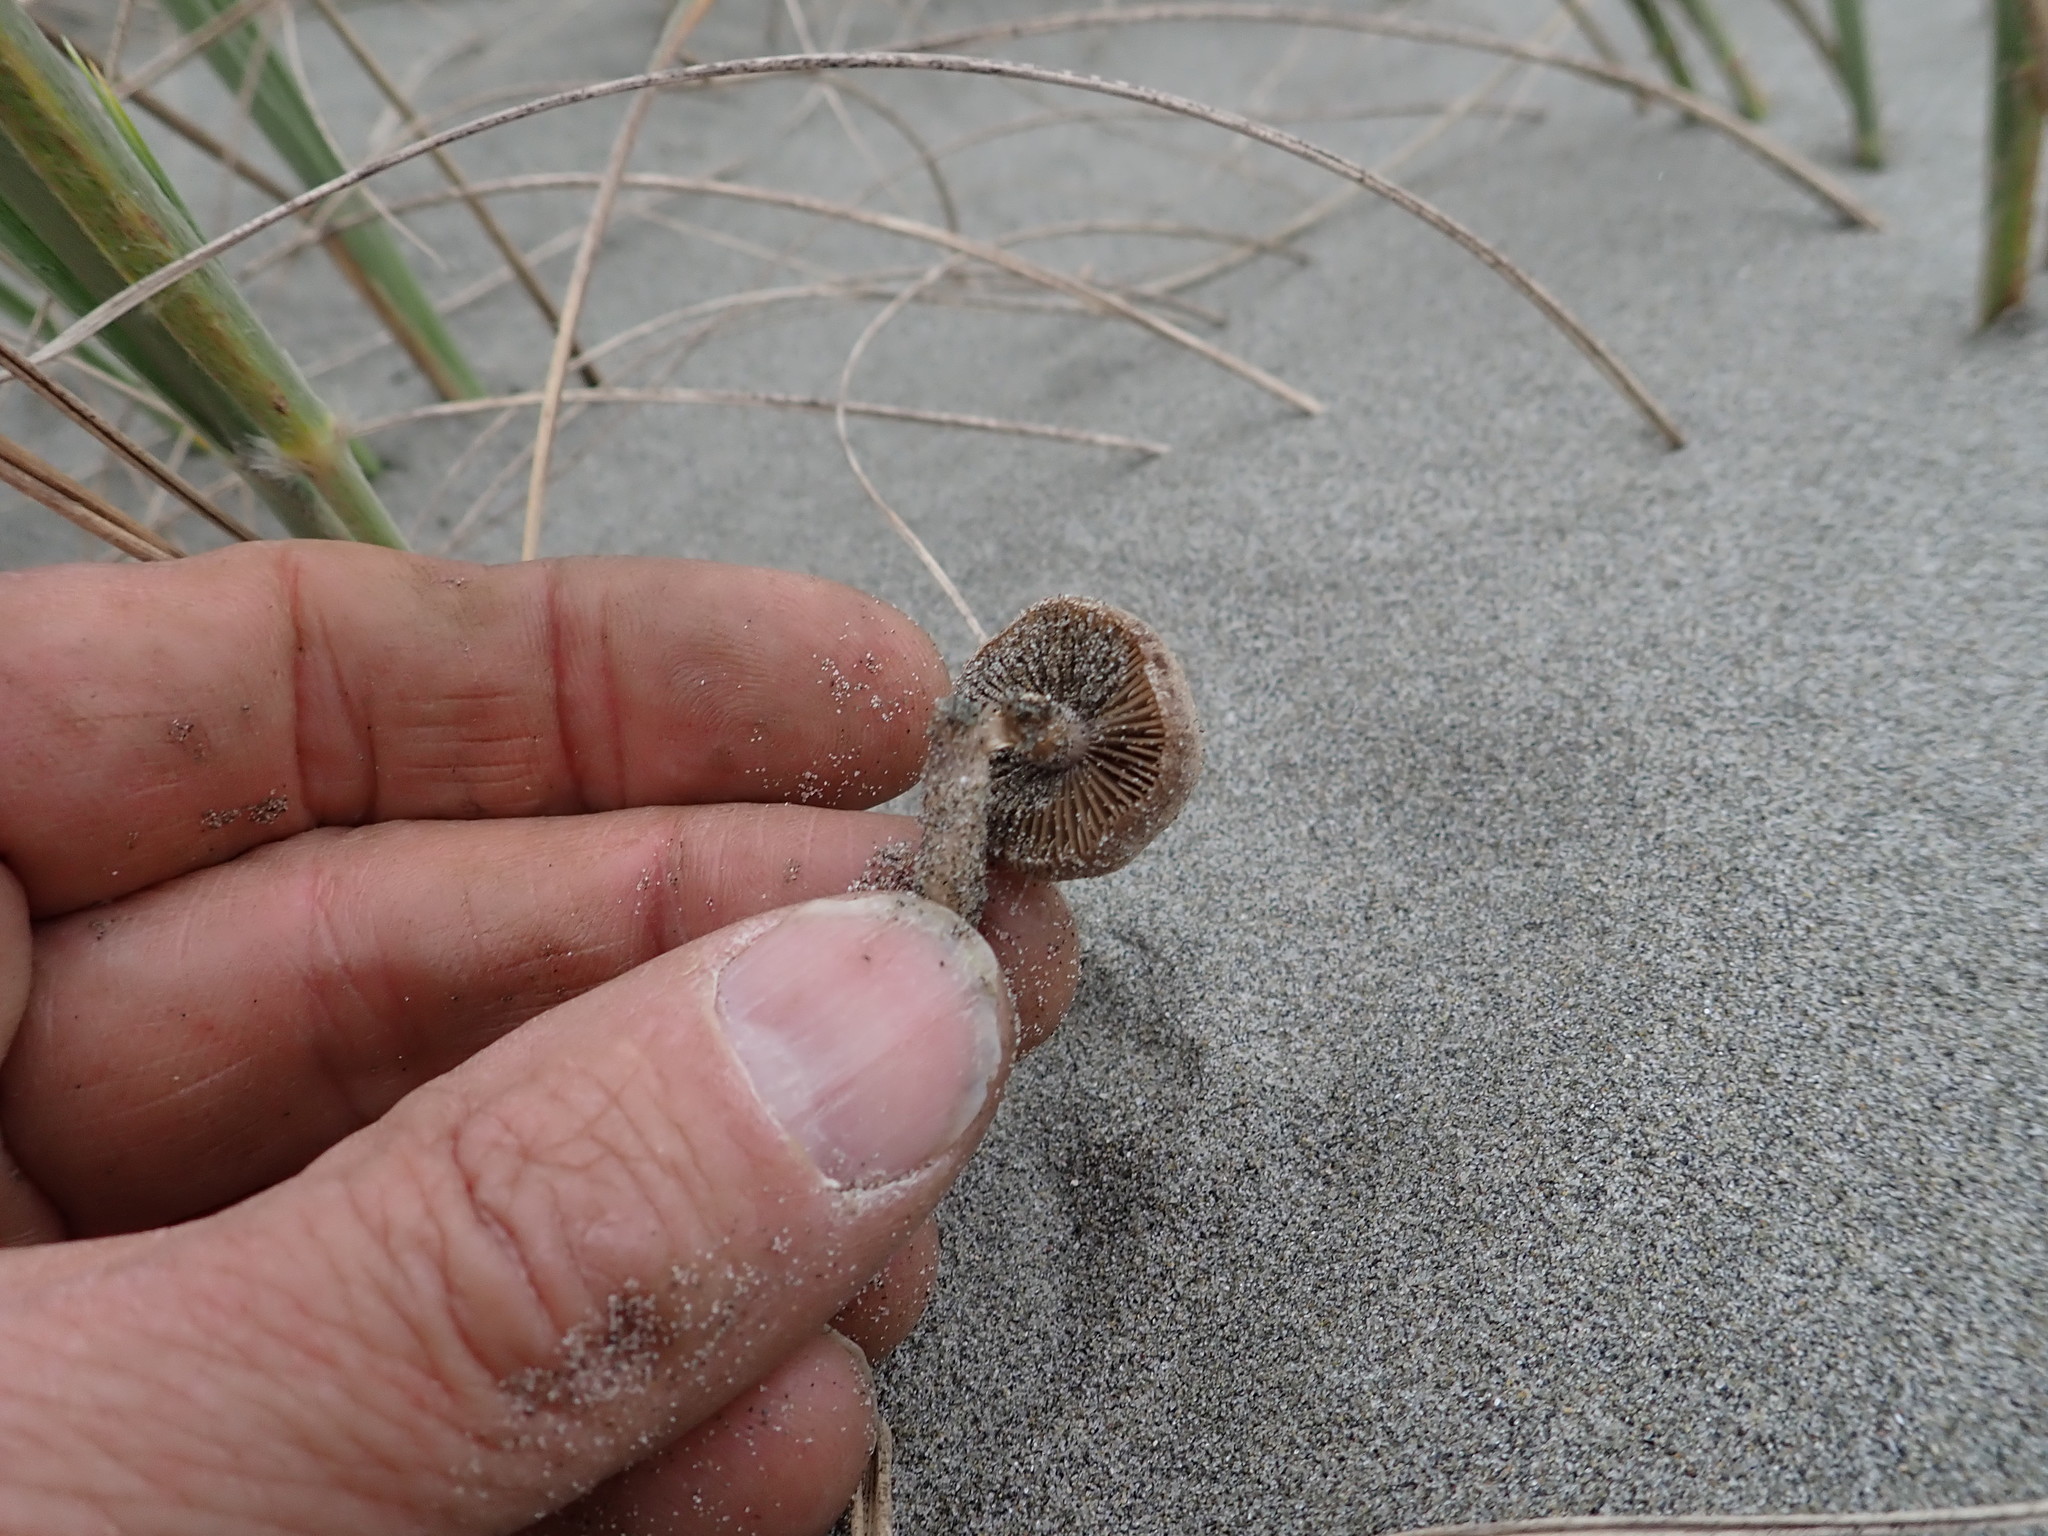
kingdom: Fungi
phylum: Basidiomycota
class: Agaricomycetes
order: Agaricales
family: Psathyrellaceae
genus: Psathyrella
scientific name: Psathyrella ammophila
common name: Dune brittlestem
